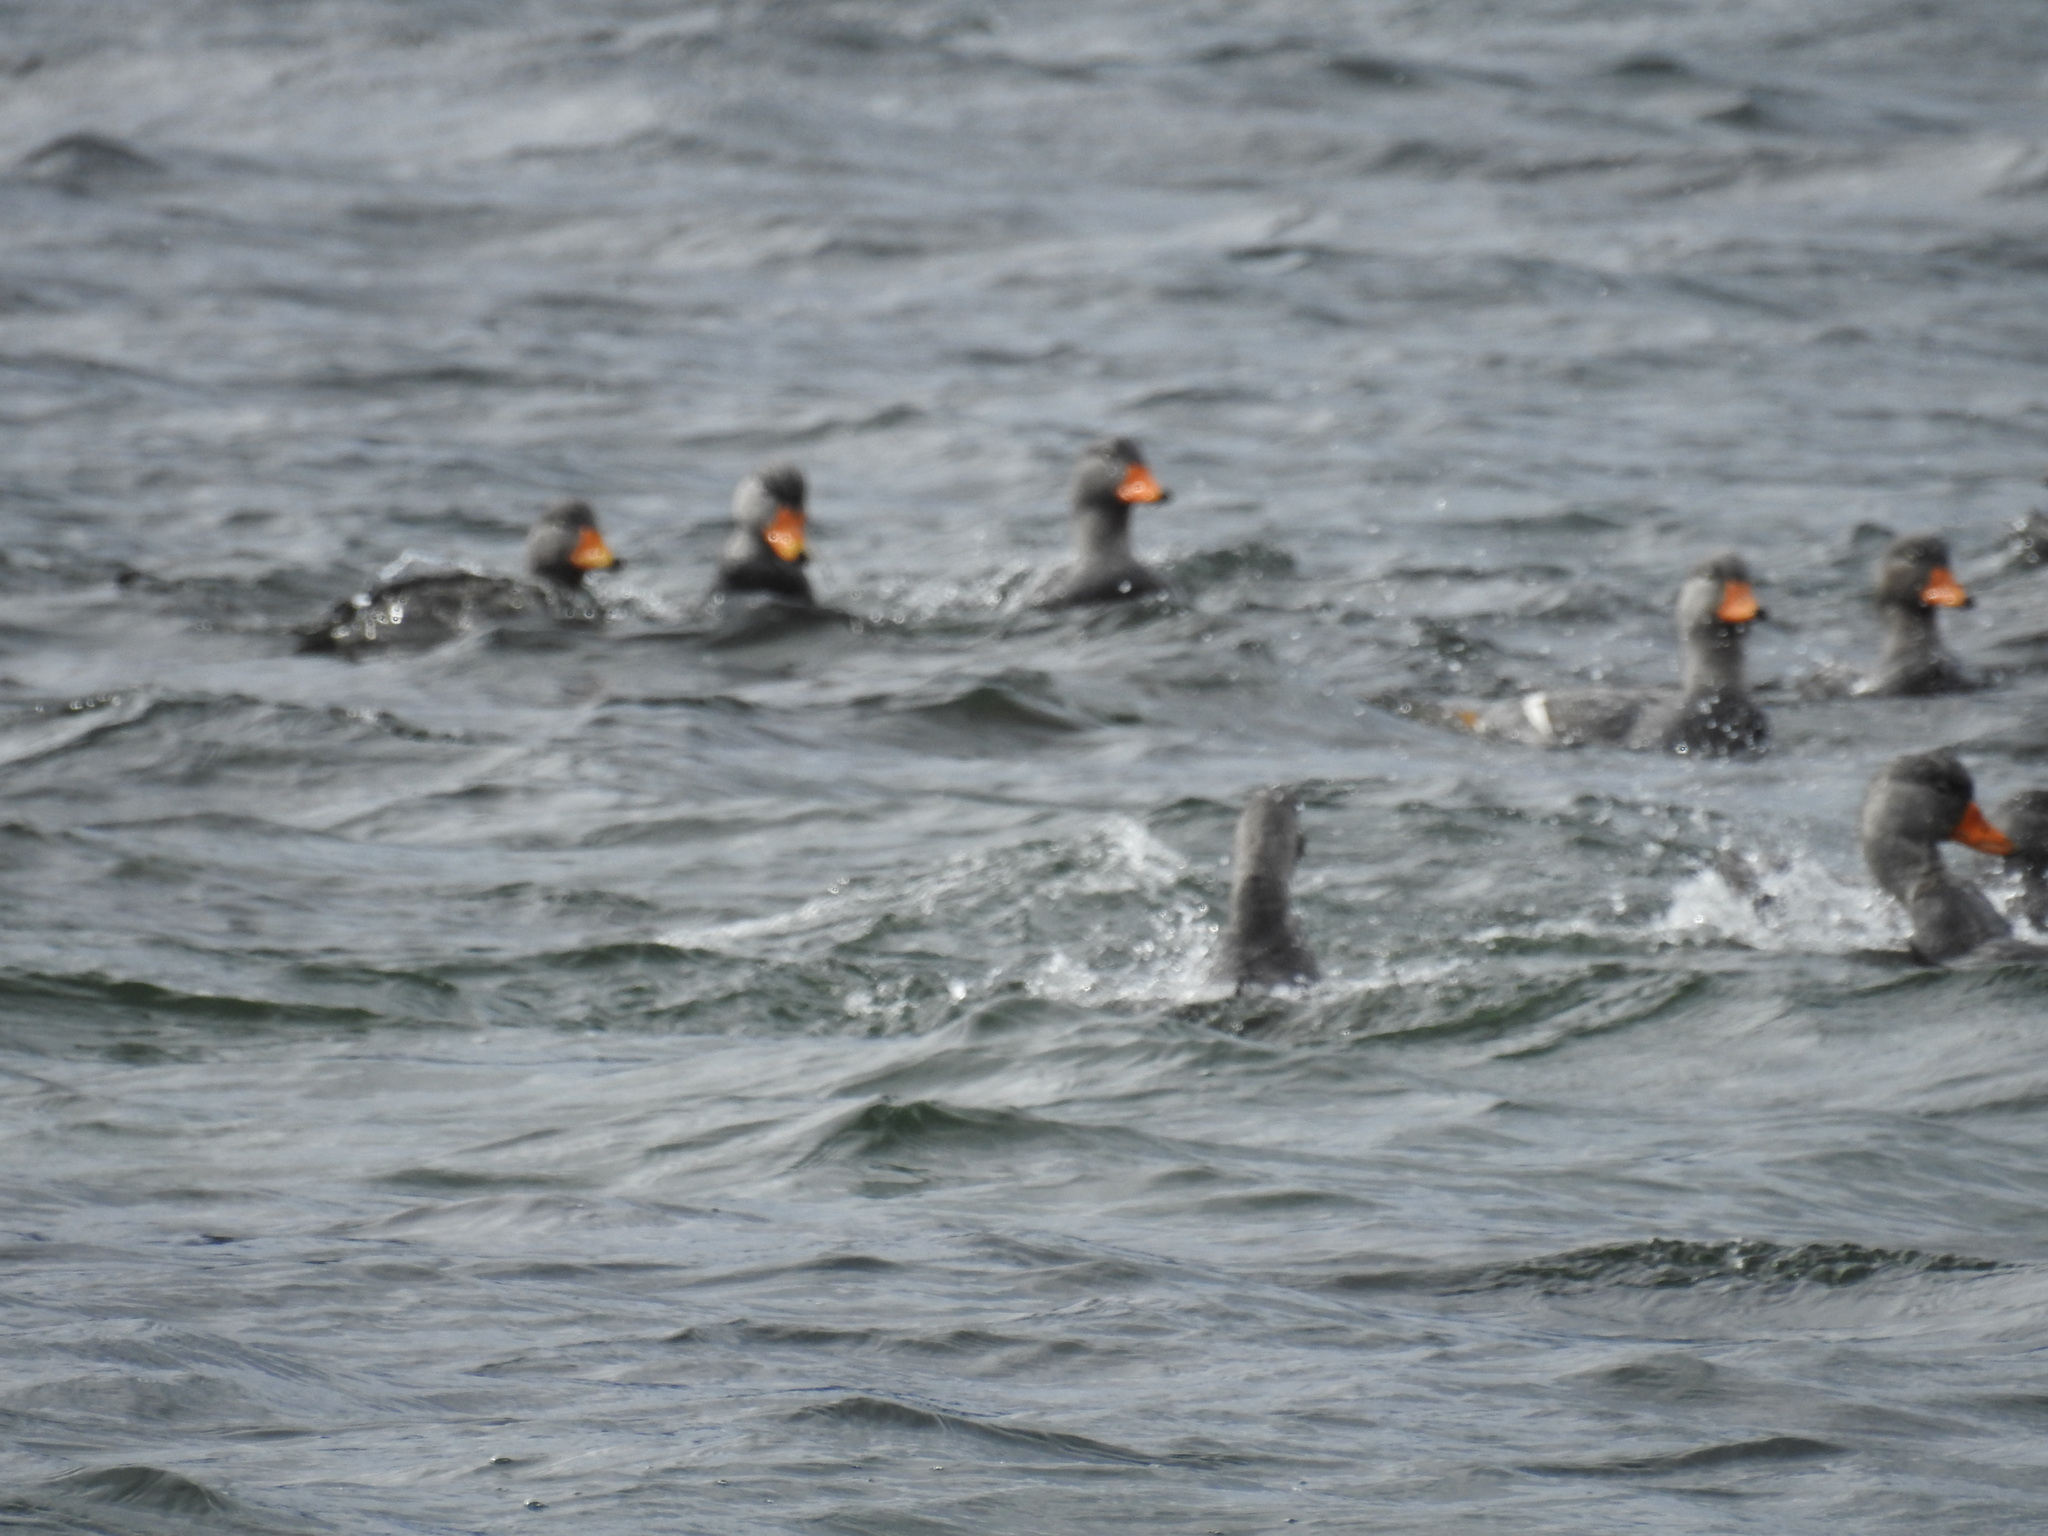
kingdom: Animalia
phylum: Chordata
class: Aves
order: Anseriformes
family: Anatidae
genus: Tachyeres
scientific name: Tachyeres pteneres
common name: Fuegian steamer duck
